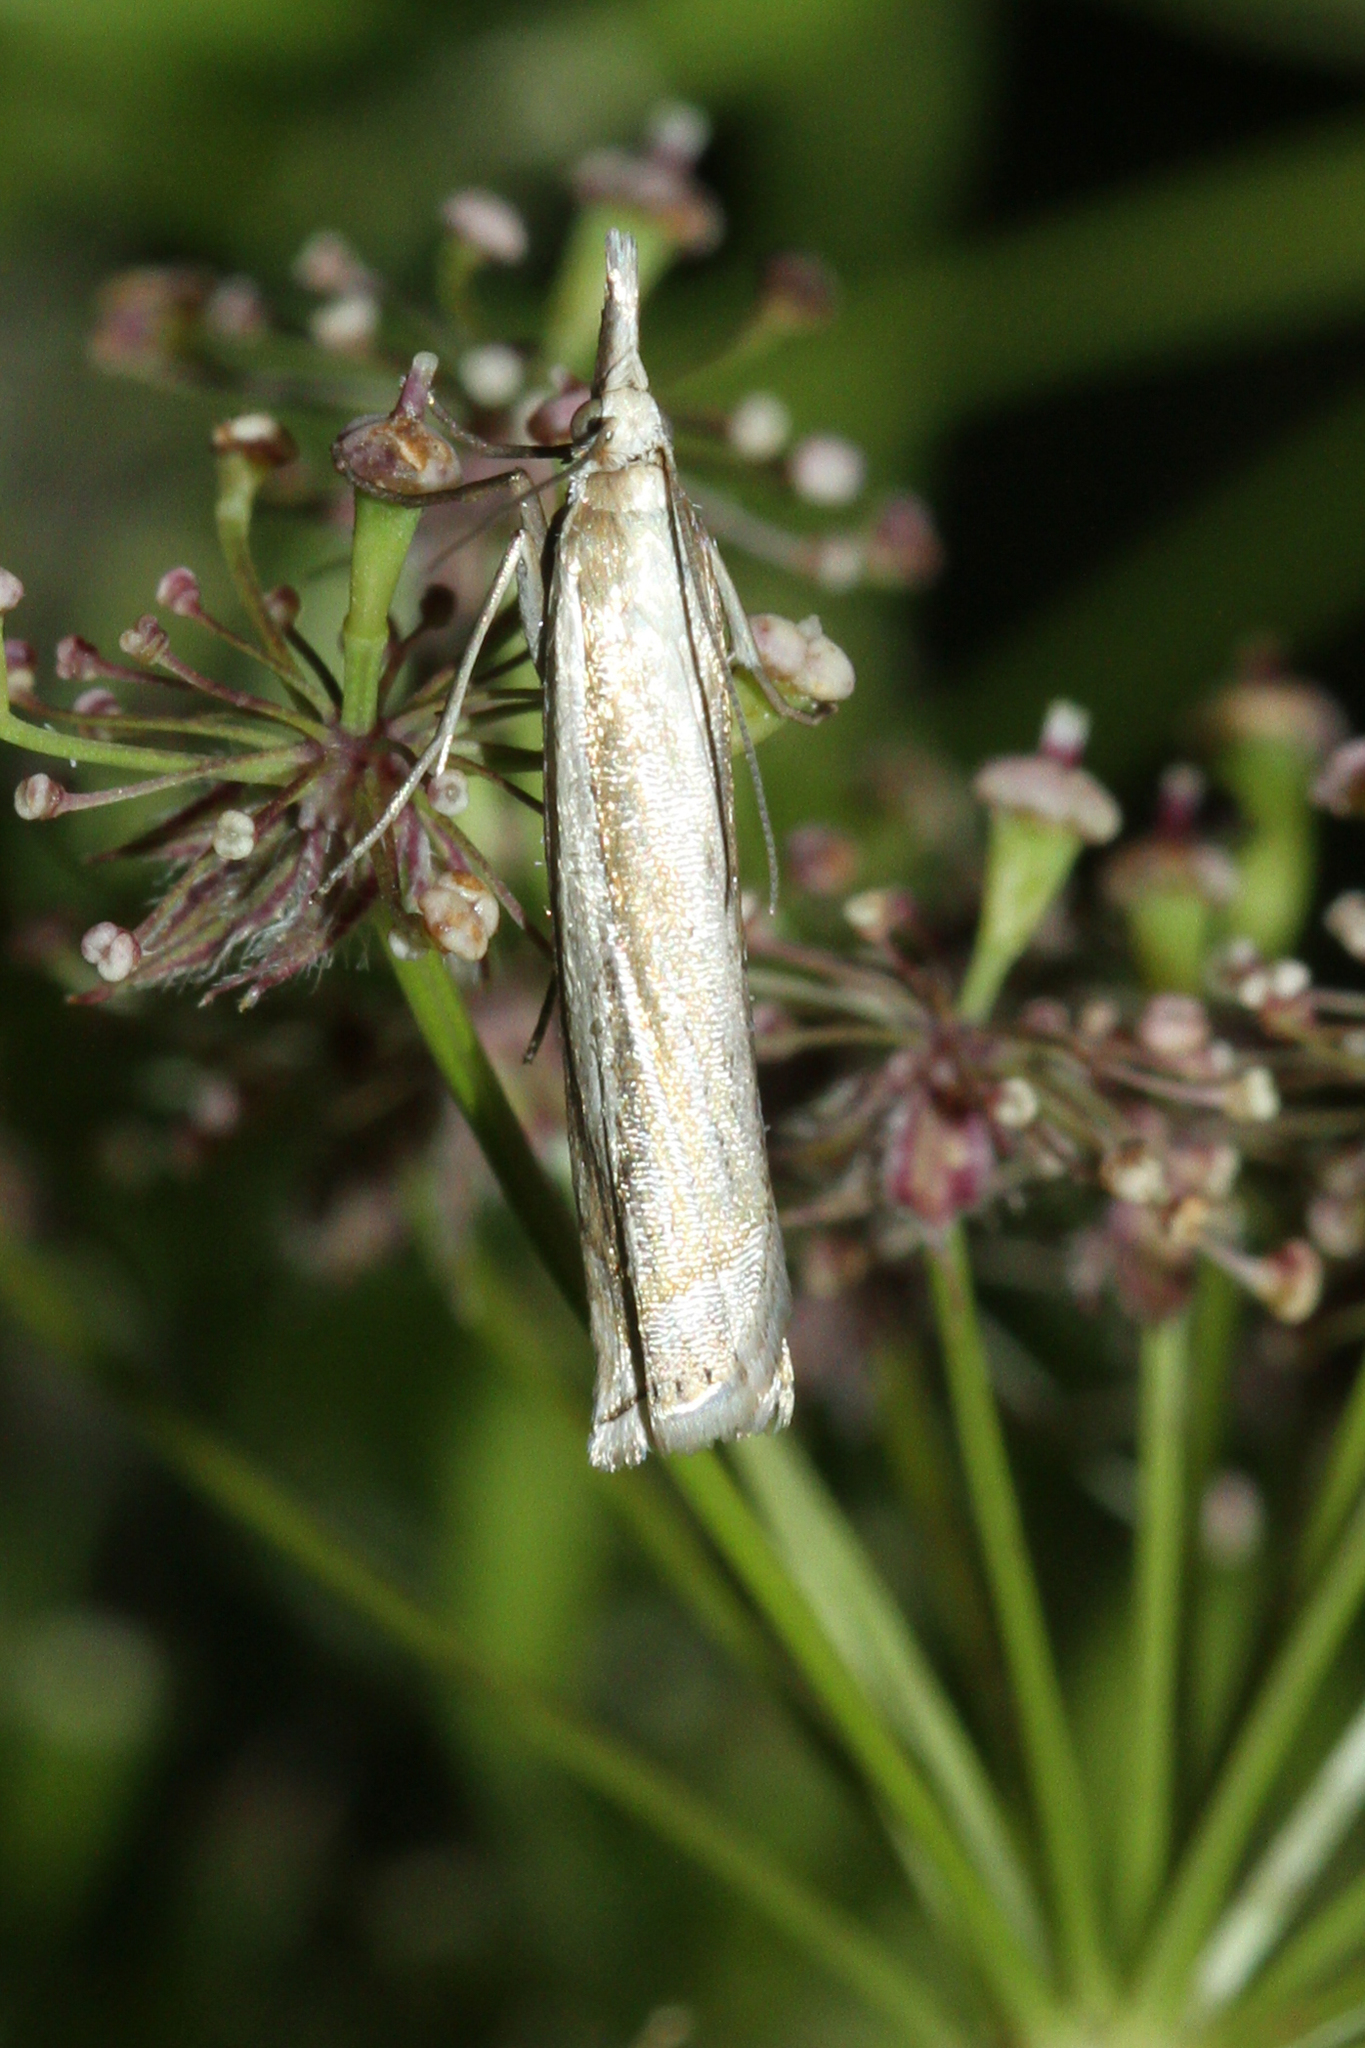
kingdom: Animalia
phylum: Arthropoda
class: Insecta
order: Lepidoptera
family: Crambidae
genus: Crambus
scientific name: Crambus pascuella
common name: Inlaid grass-veneer
